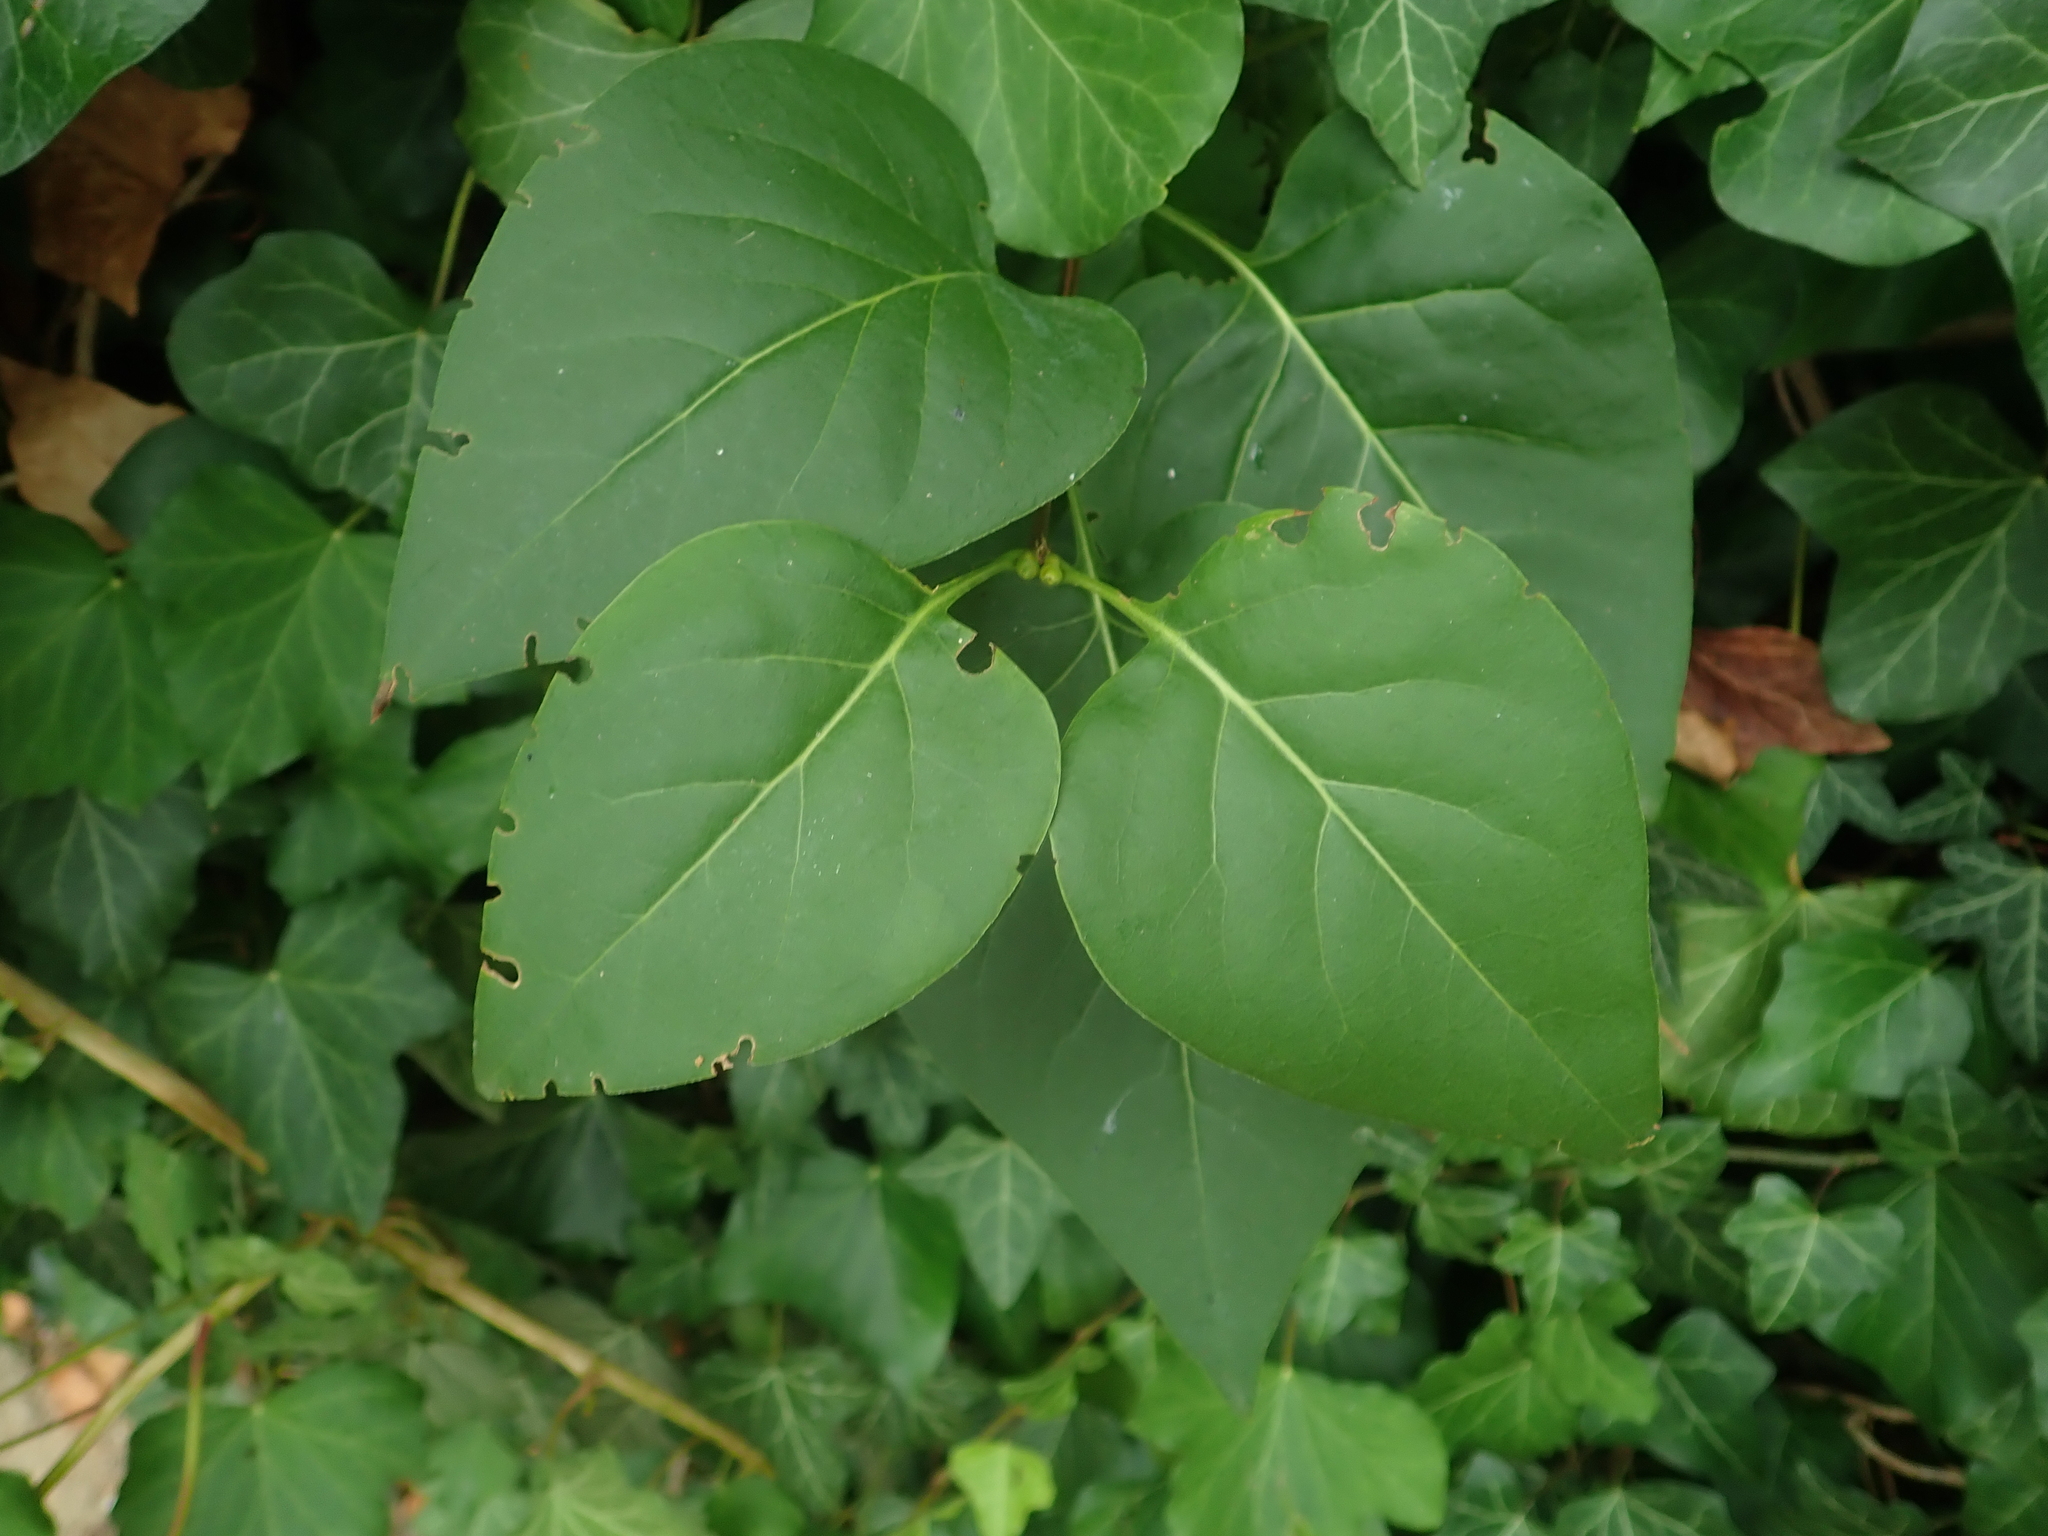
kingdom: Plantae
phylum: Tracheophyta
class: Magnoliopsida
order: Lamiales
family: Oleaceae
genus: Syringa
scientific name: Syringa vulgaris
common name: Common lilac
